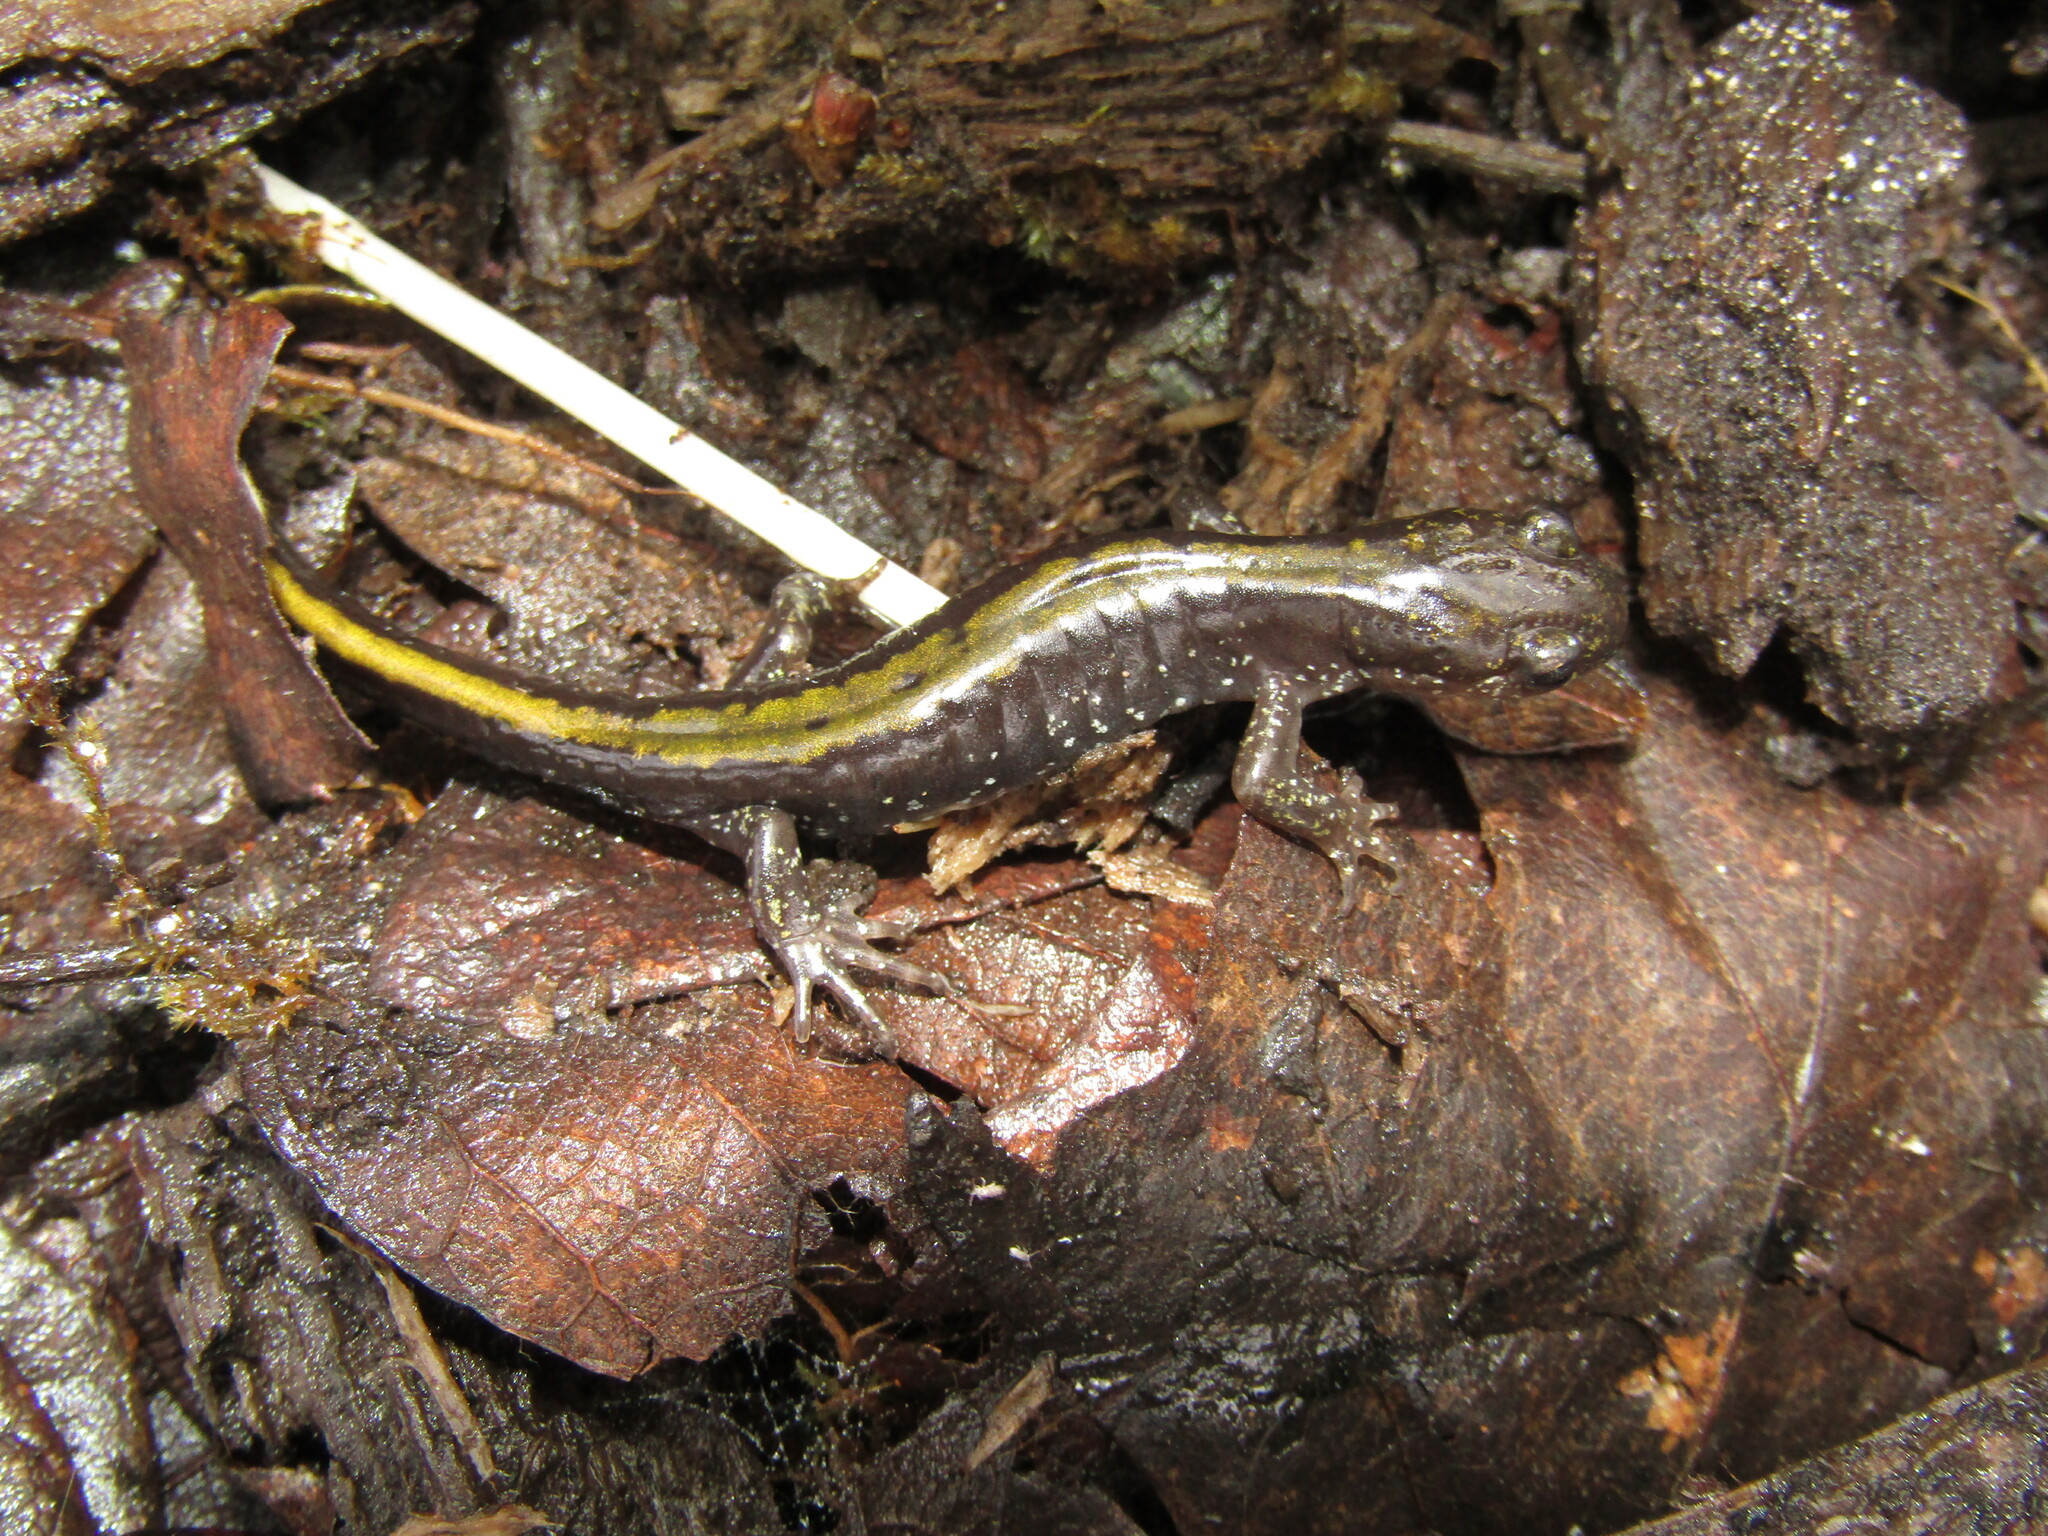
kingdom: Animalia
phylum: Chordata
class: Amphibia
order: Caudata
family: Ambystomatidae
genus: Ambystoma
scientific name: Ambystoma macrodactylum
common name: Long-toed salamander
